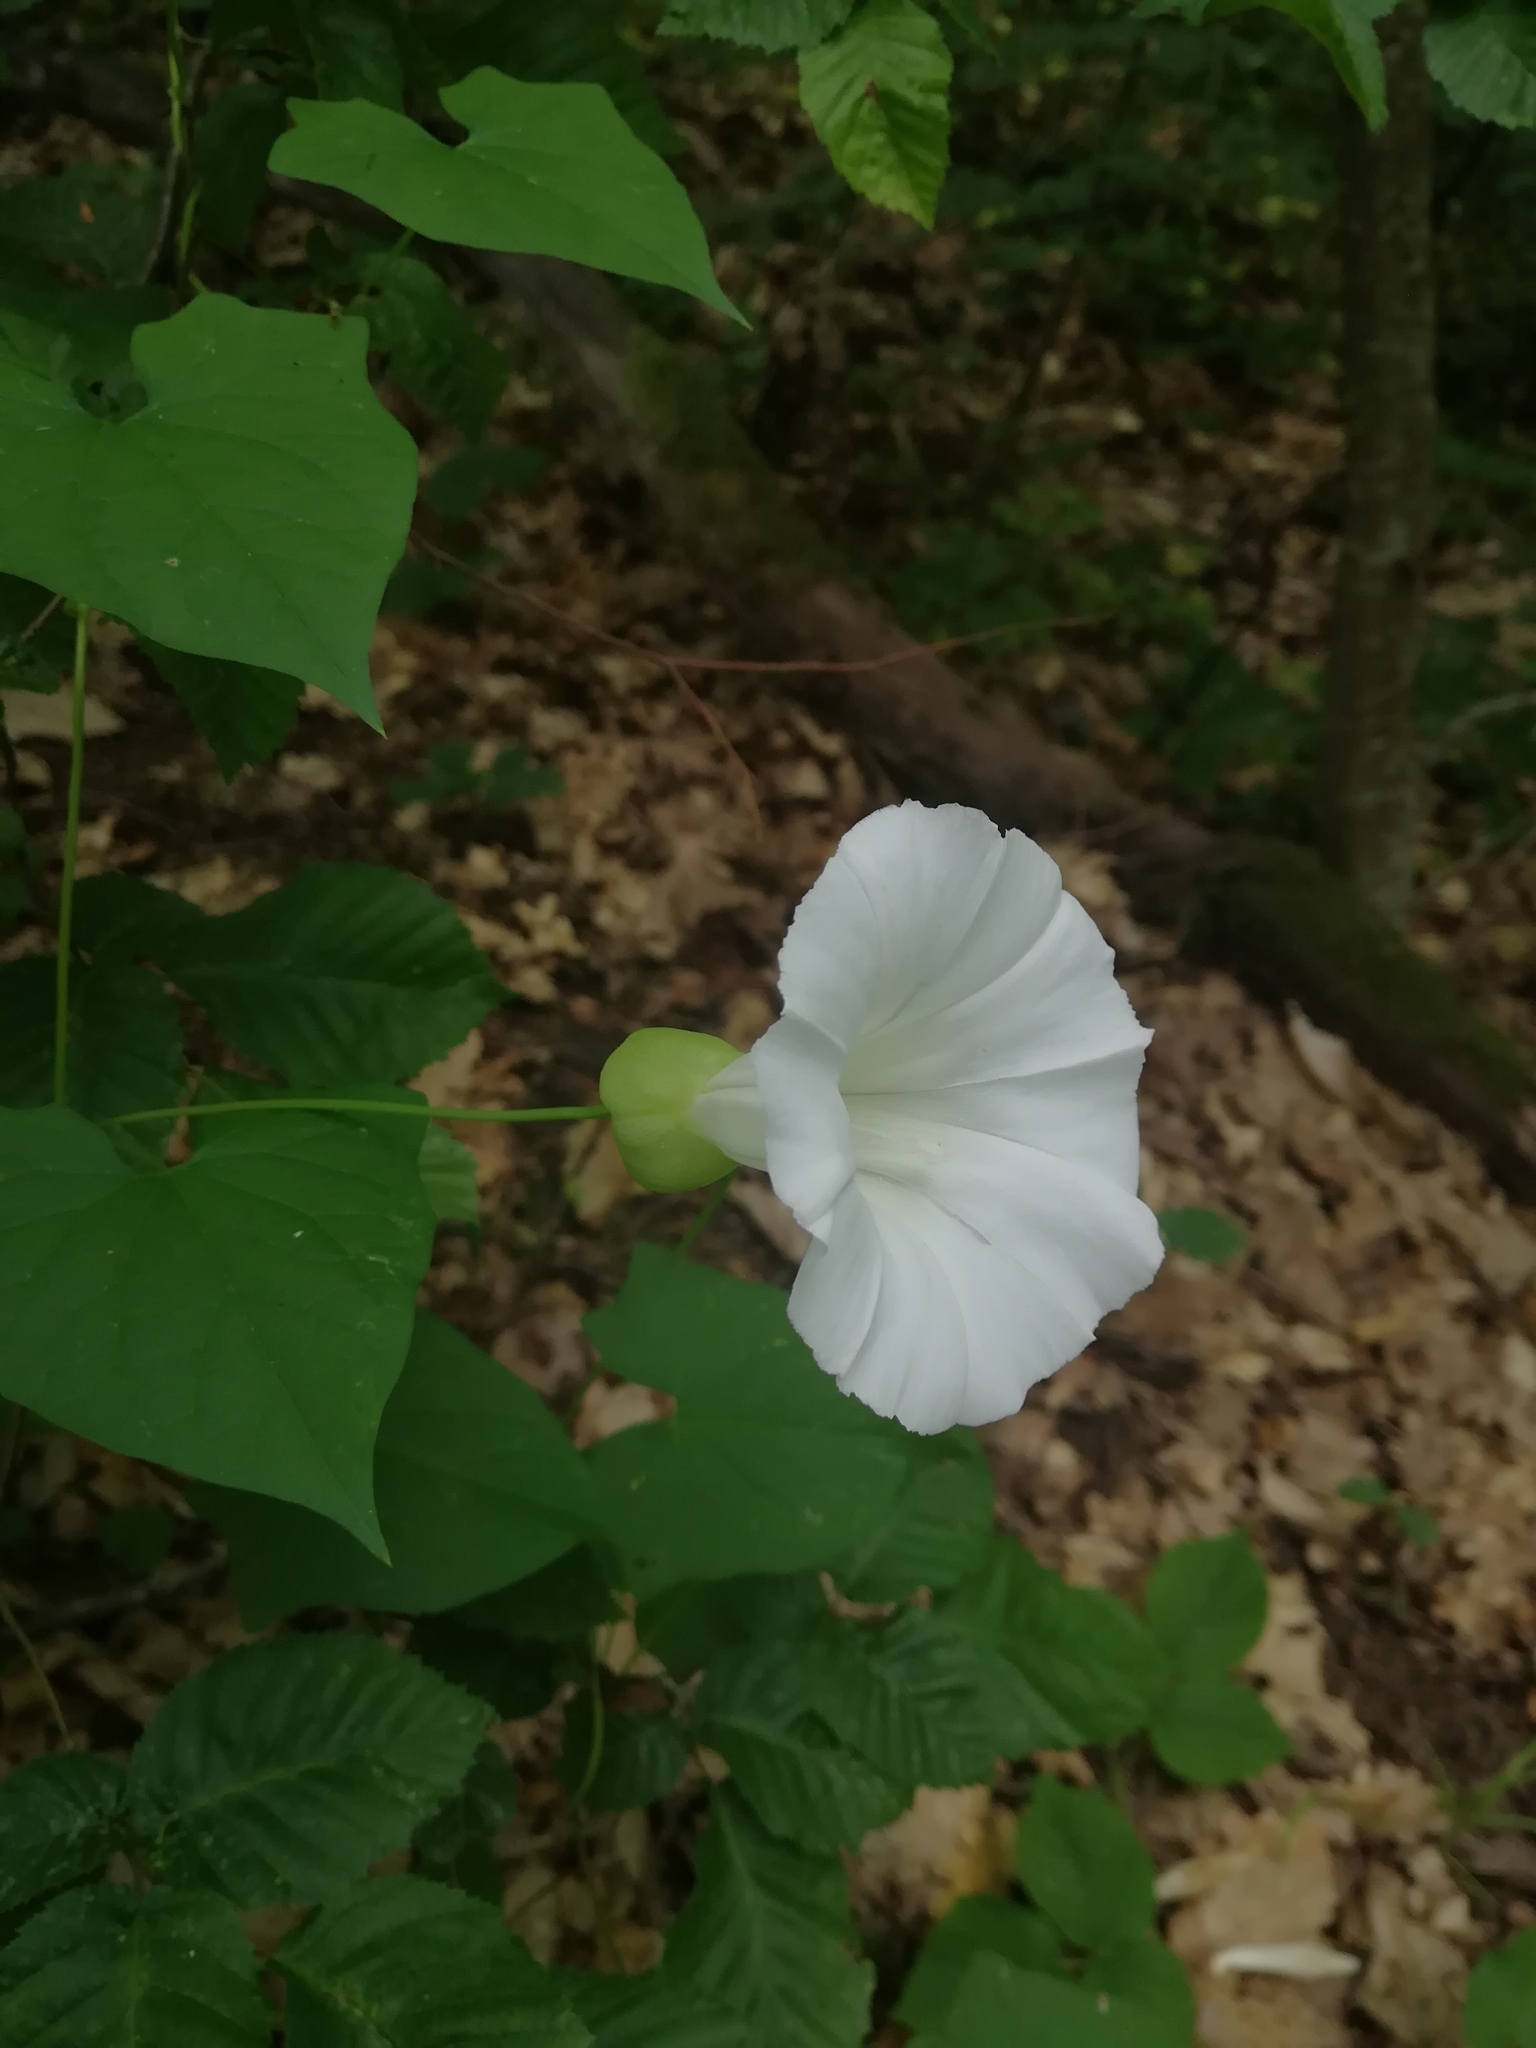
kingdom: Plantae
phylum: Tracheophyta
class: Magnoliopsida
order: Solanales
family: Convolvulaceae
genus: Calystegia
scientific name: Calystegia silvatica
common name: Large bindweed
